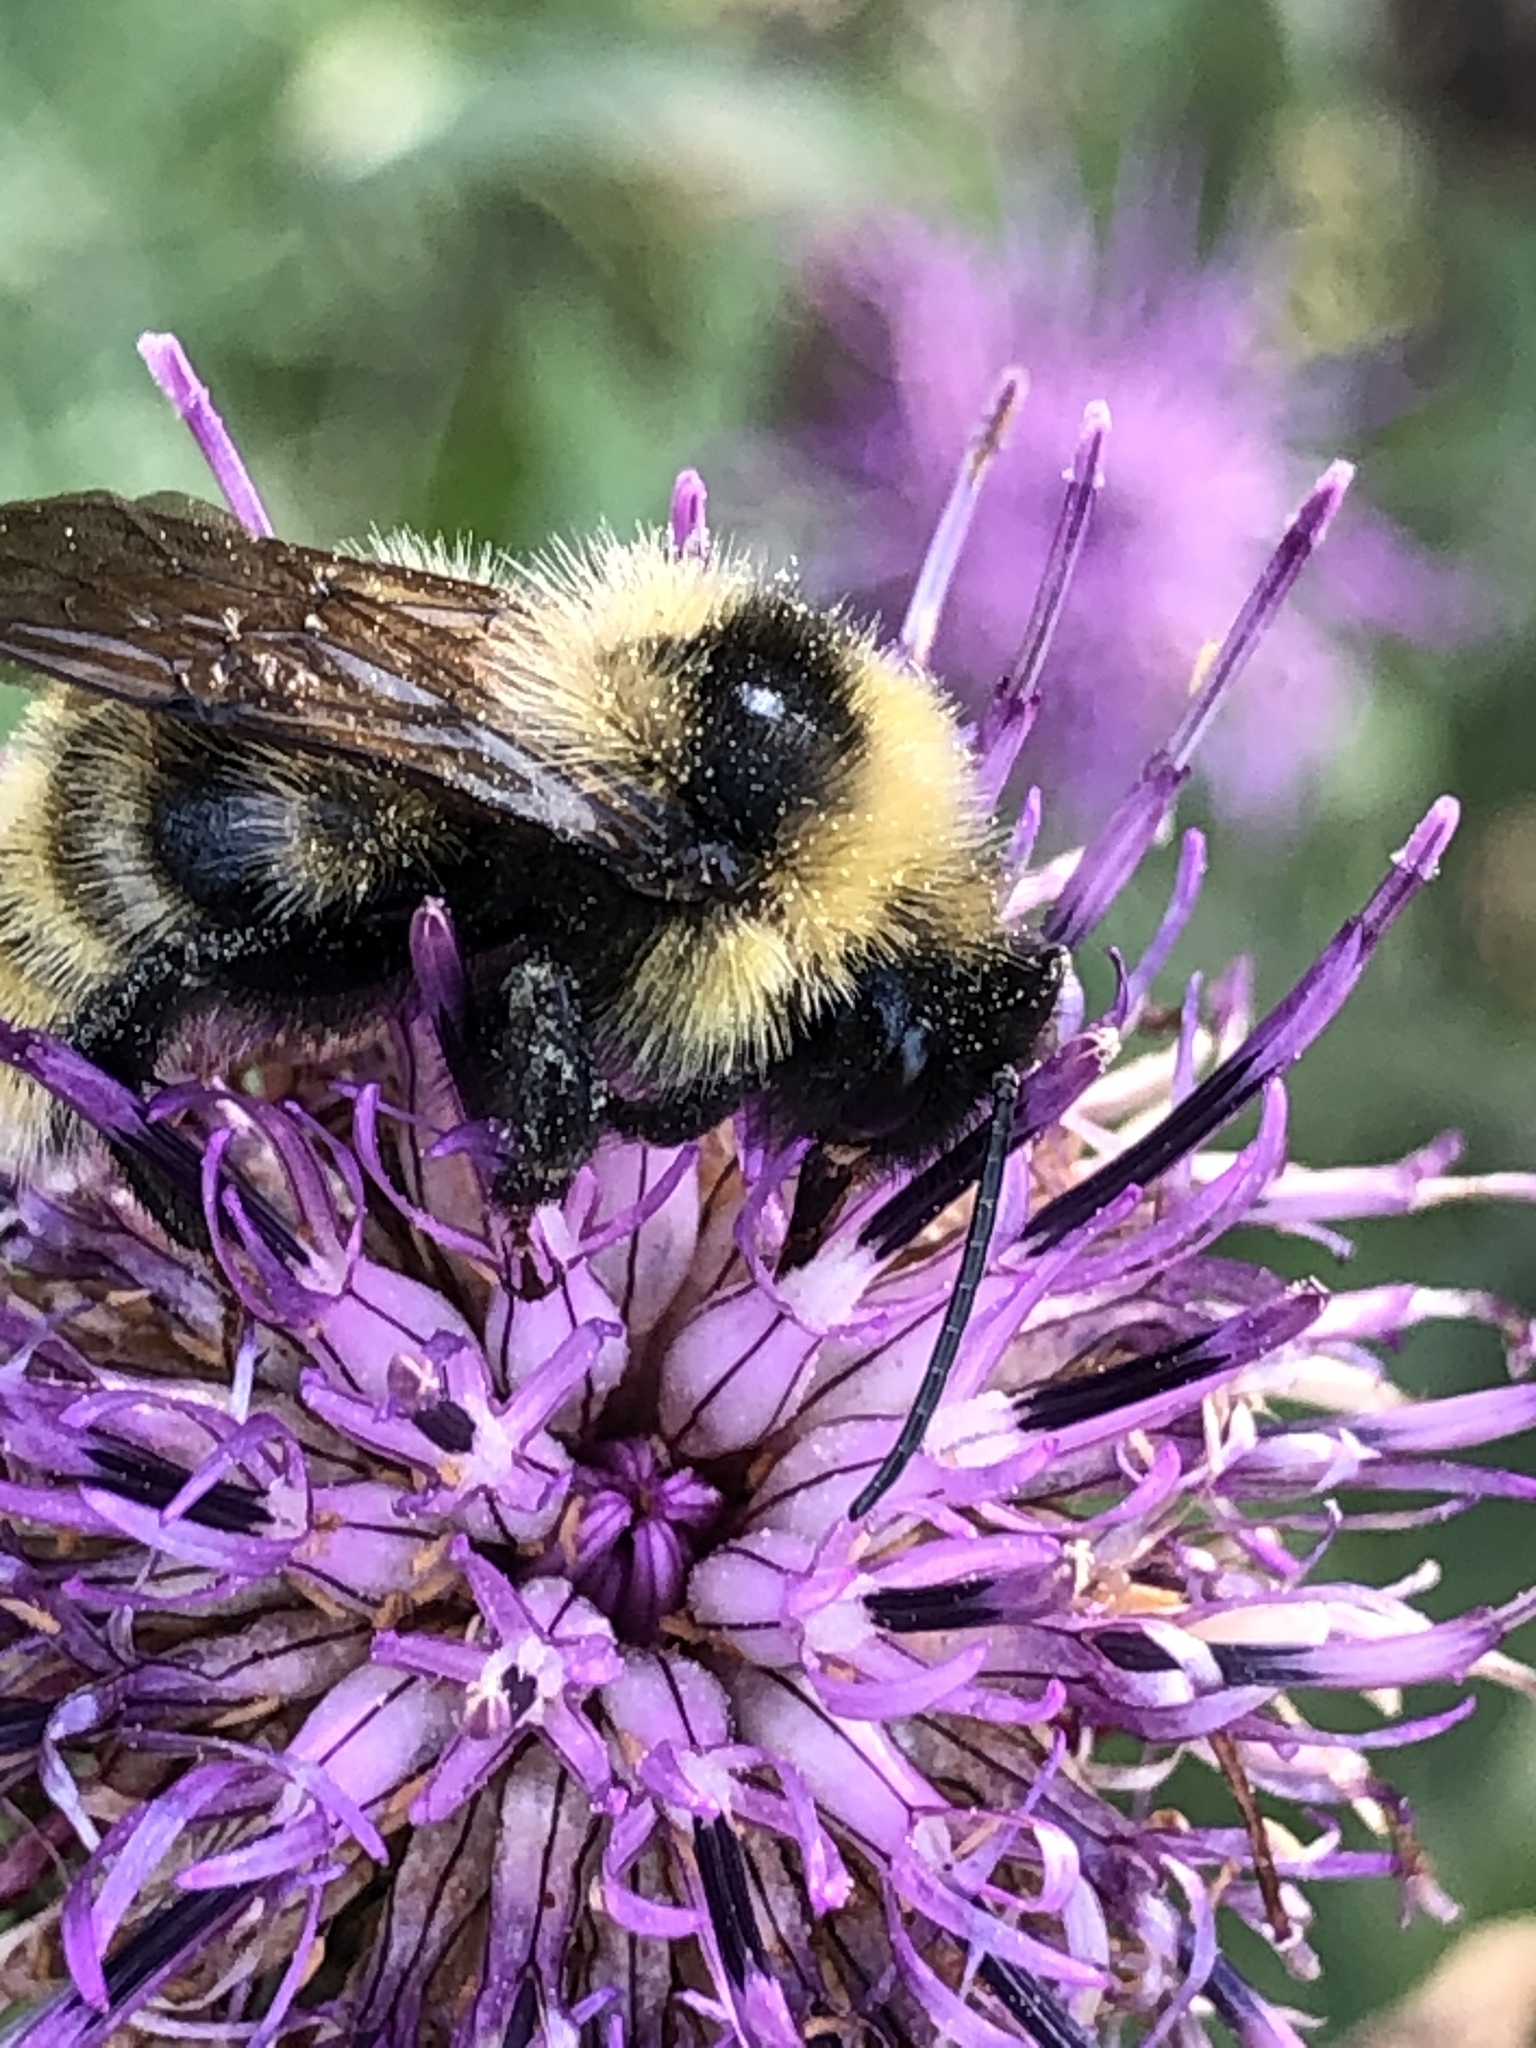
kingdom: Animalia
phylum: Arthropoda
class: Insecta
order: Hymenoptera
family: Apidae
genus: Bombus
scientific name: Bombus campestris
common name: Field cuckoo-bee
